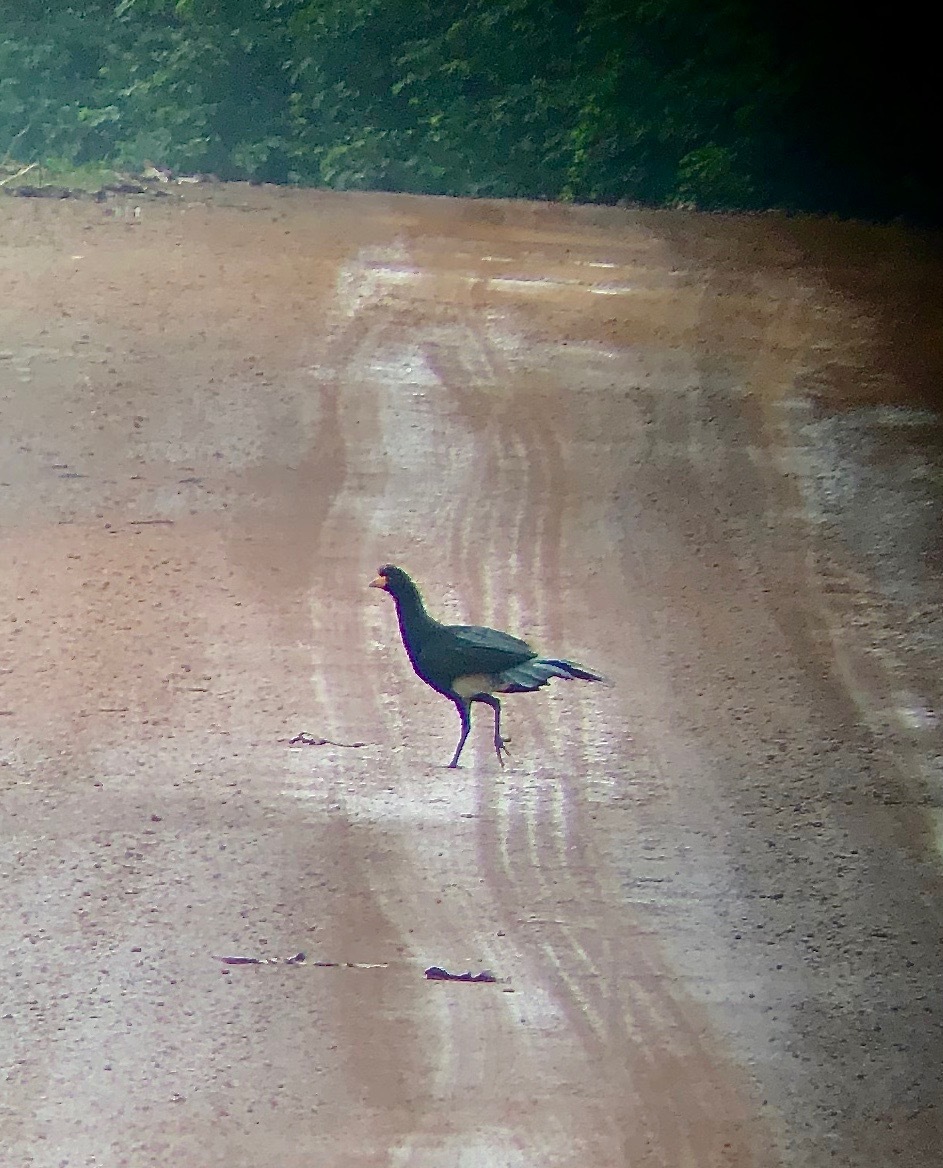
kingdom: Animalia
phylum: Chordata
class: Aves
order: Galliformes
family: Cracidae
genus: Crax
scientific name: Crax alector
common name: Black curassow
